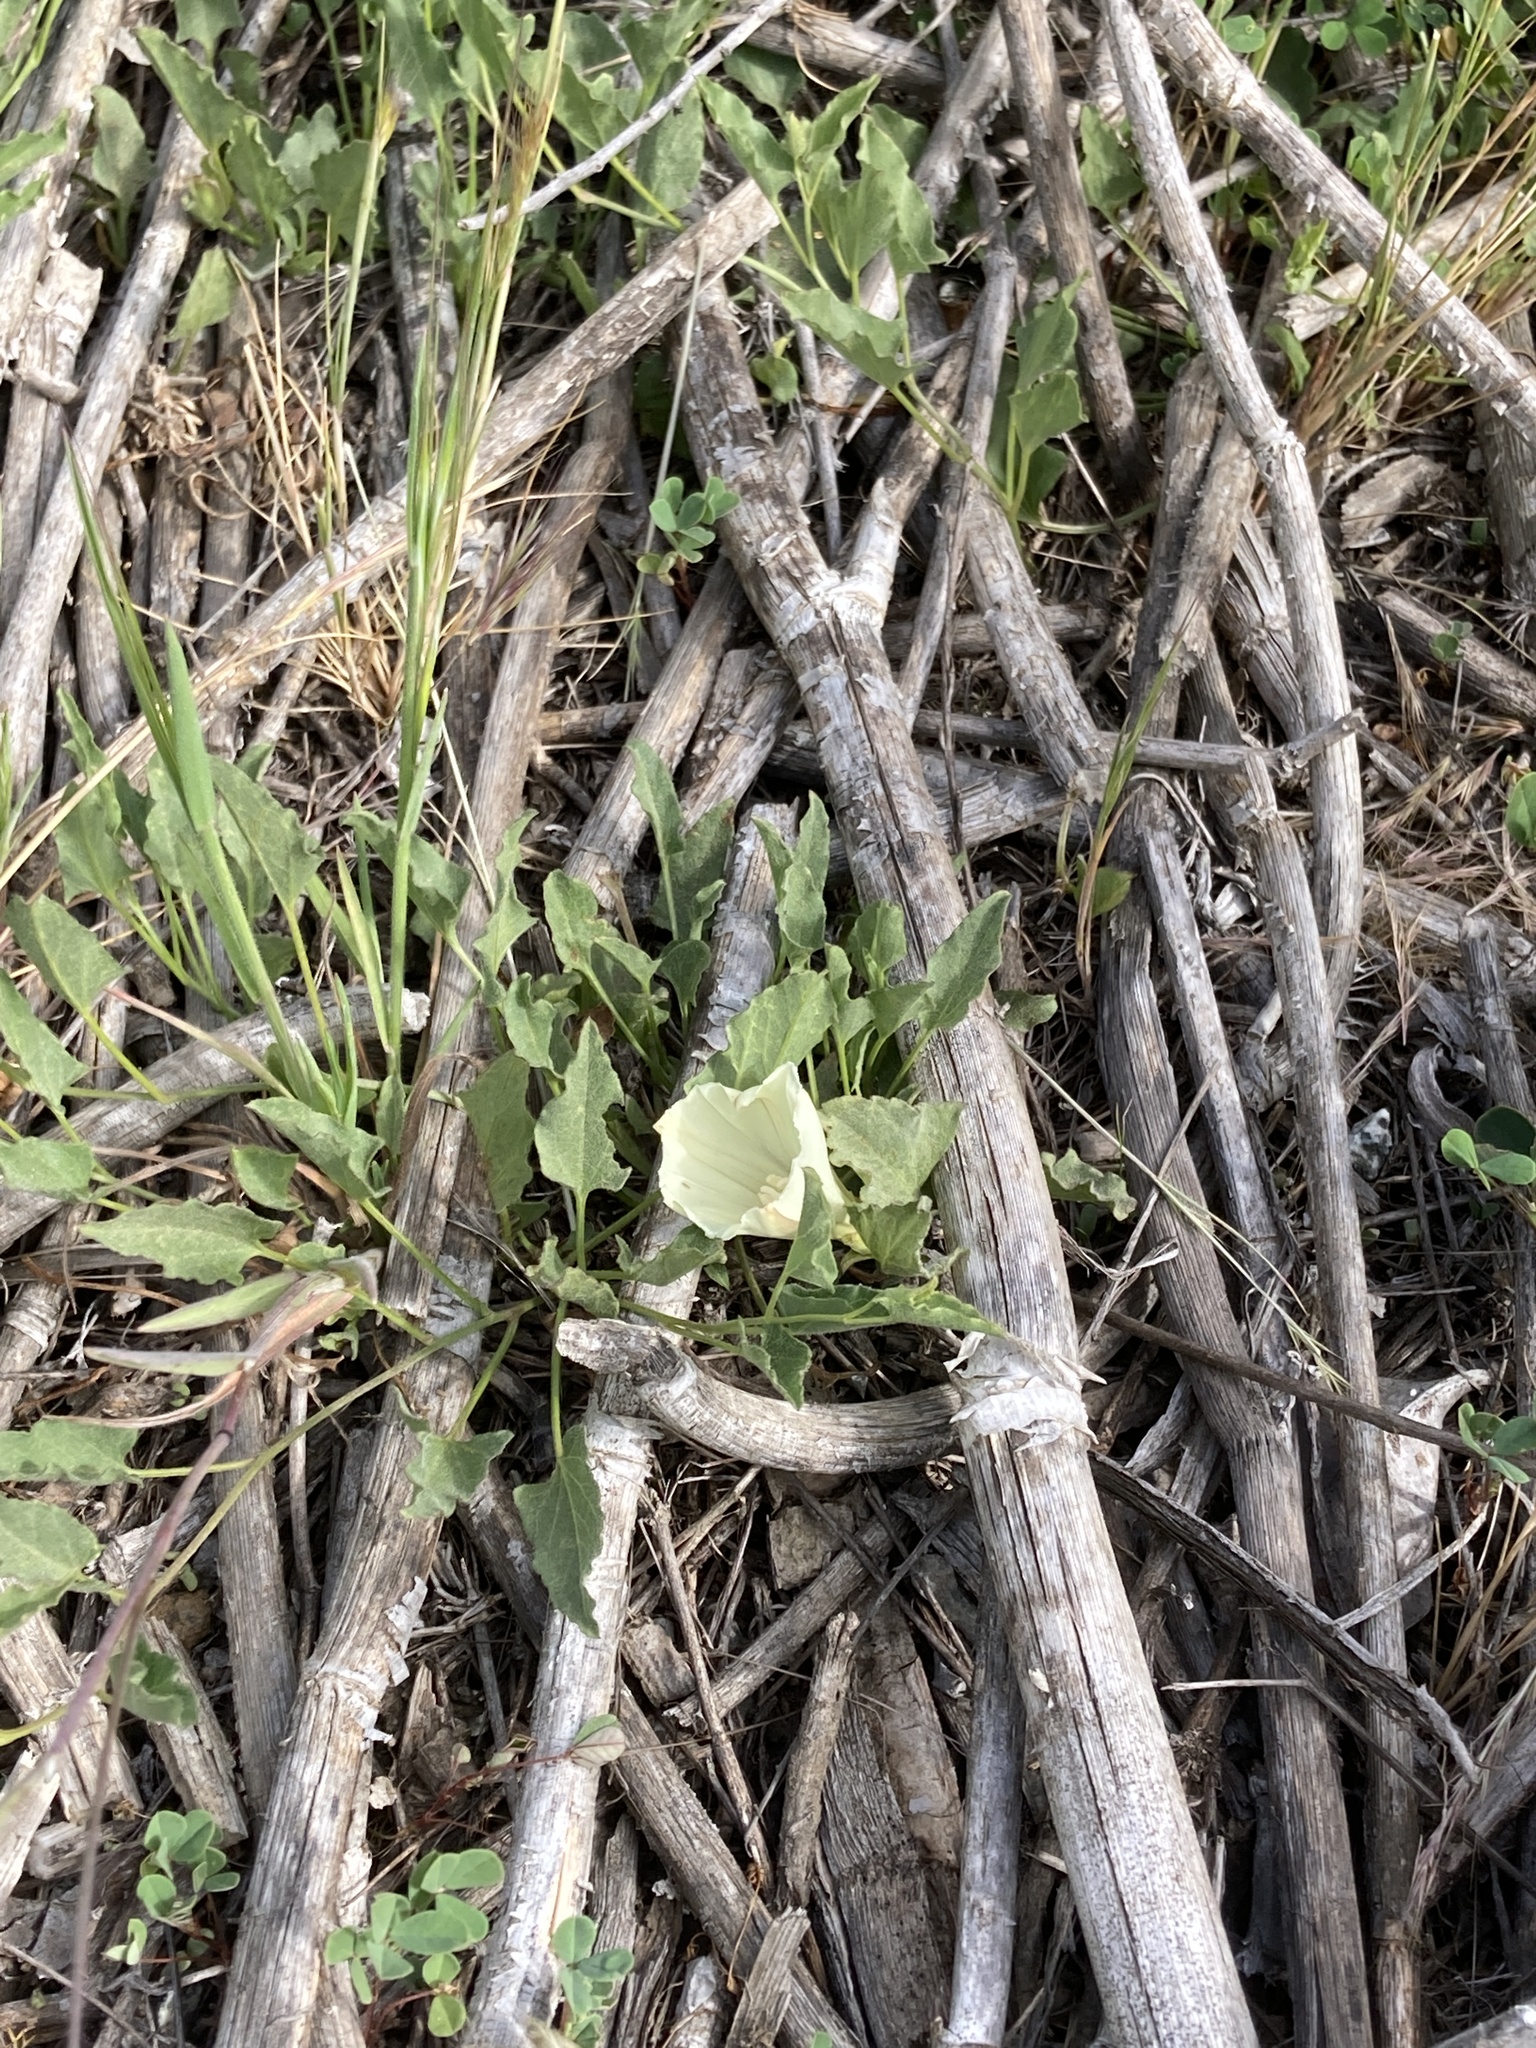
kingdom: Plantae
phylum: Tracheophyta
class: Magnoliopsida
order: Solanales
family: Convolvulaceae
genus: Calystegia
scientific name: Calystegia subacaulis
